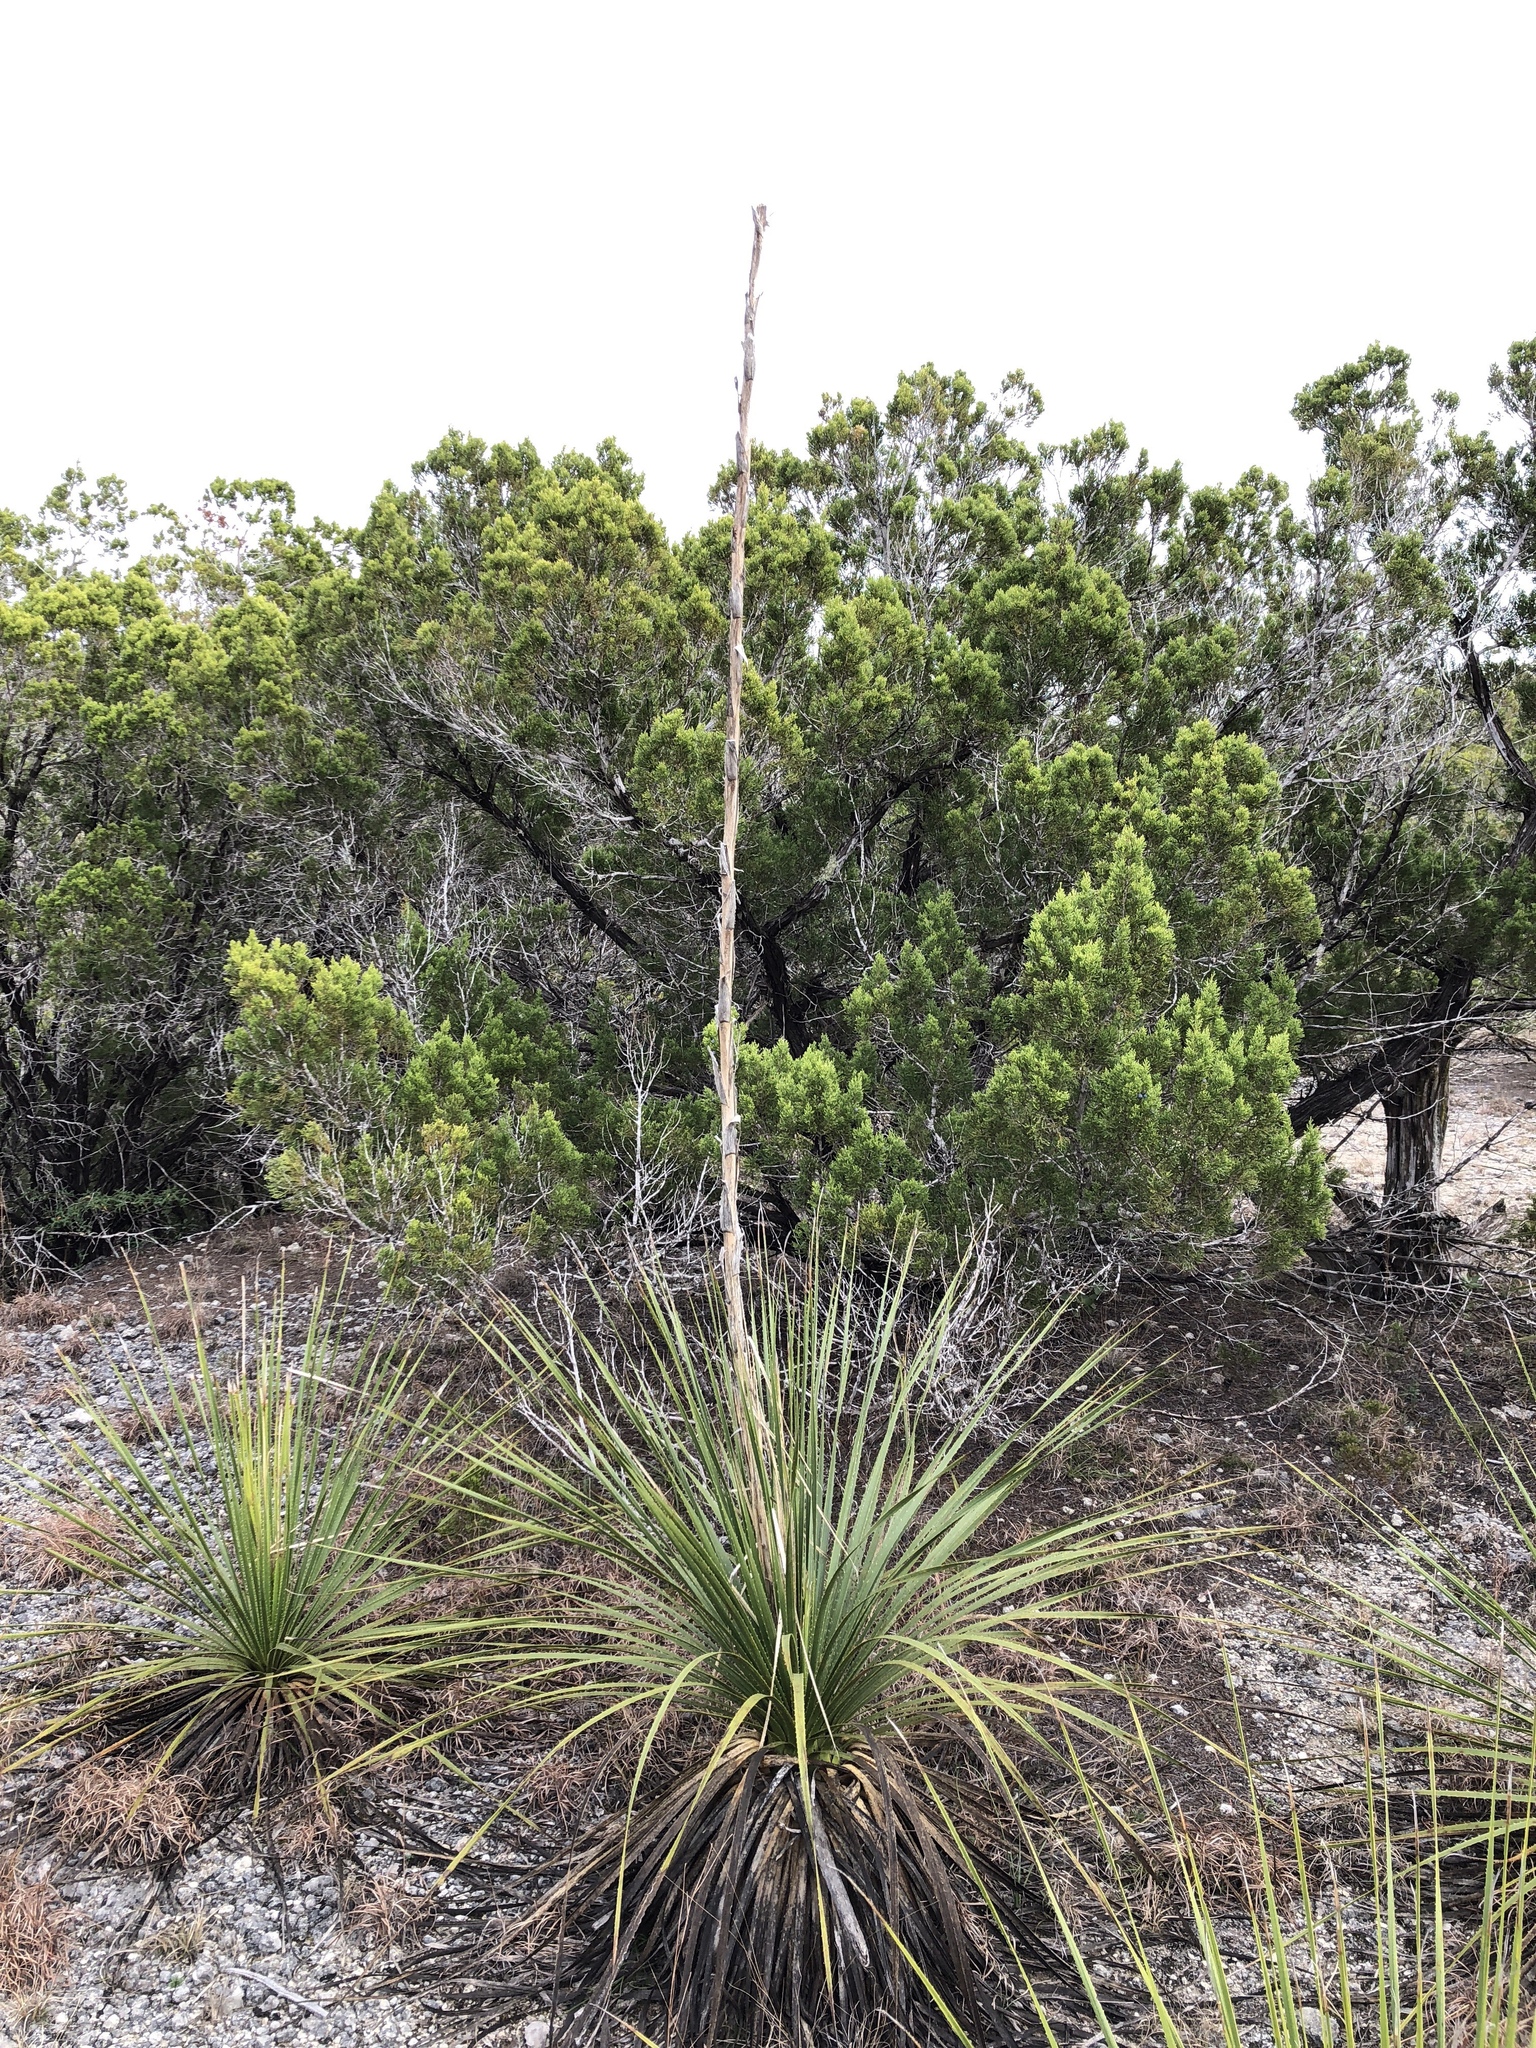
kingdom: Plantae
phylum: Tracheophyta
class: Liliopsida
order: Asparagales
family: Asparagaceae
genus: Dasylirion
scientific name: Dasylirion texanum
